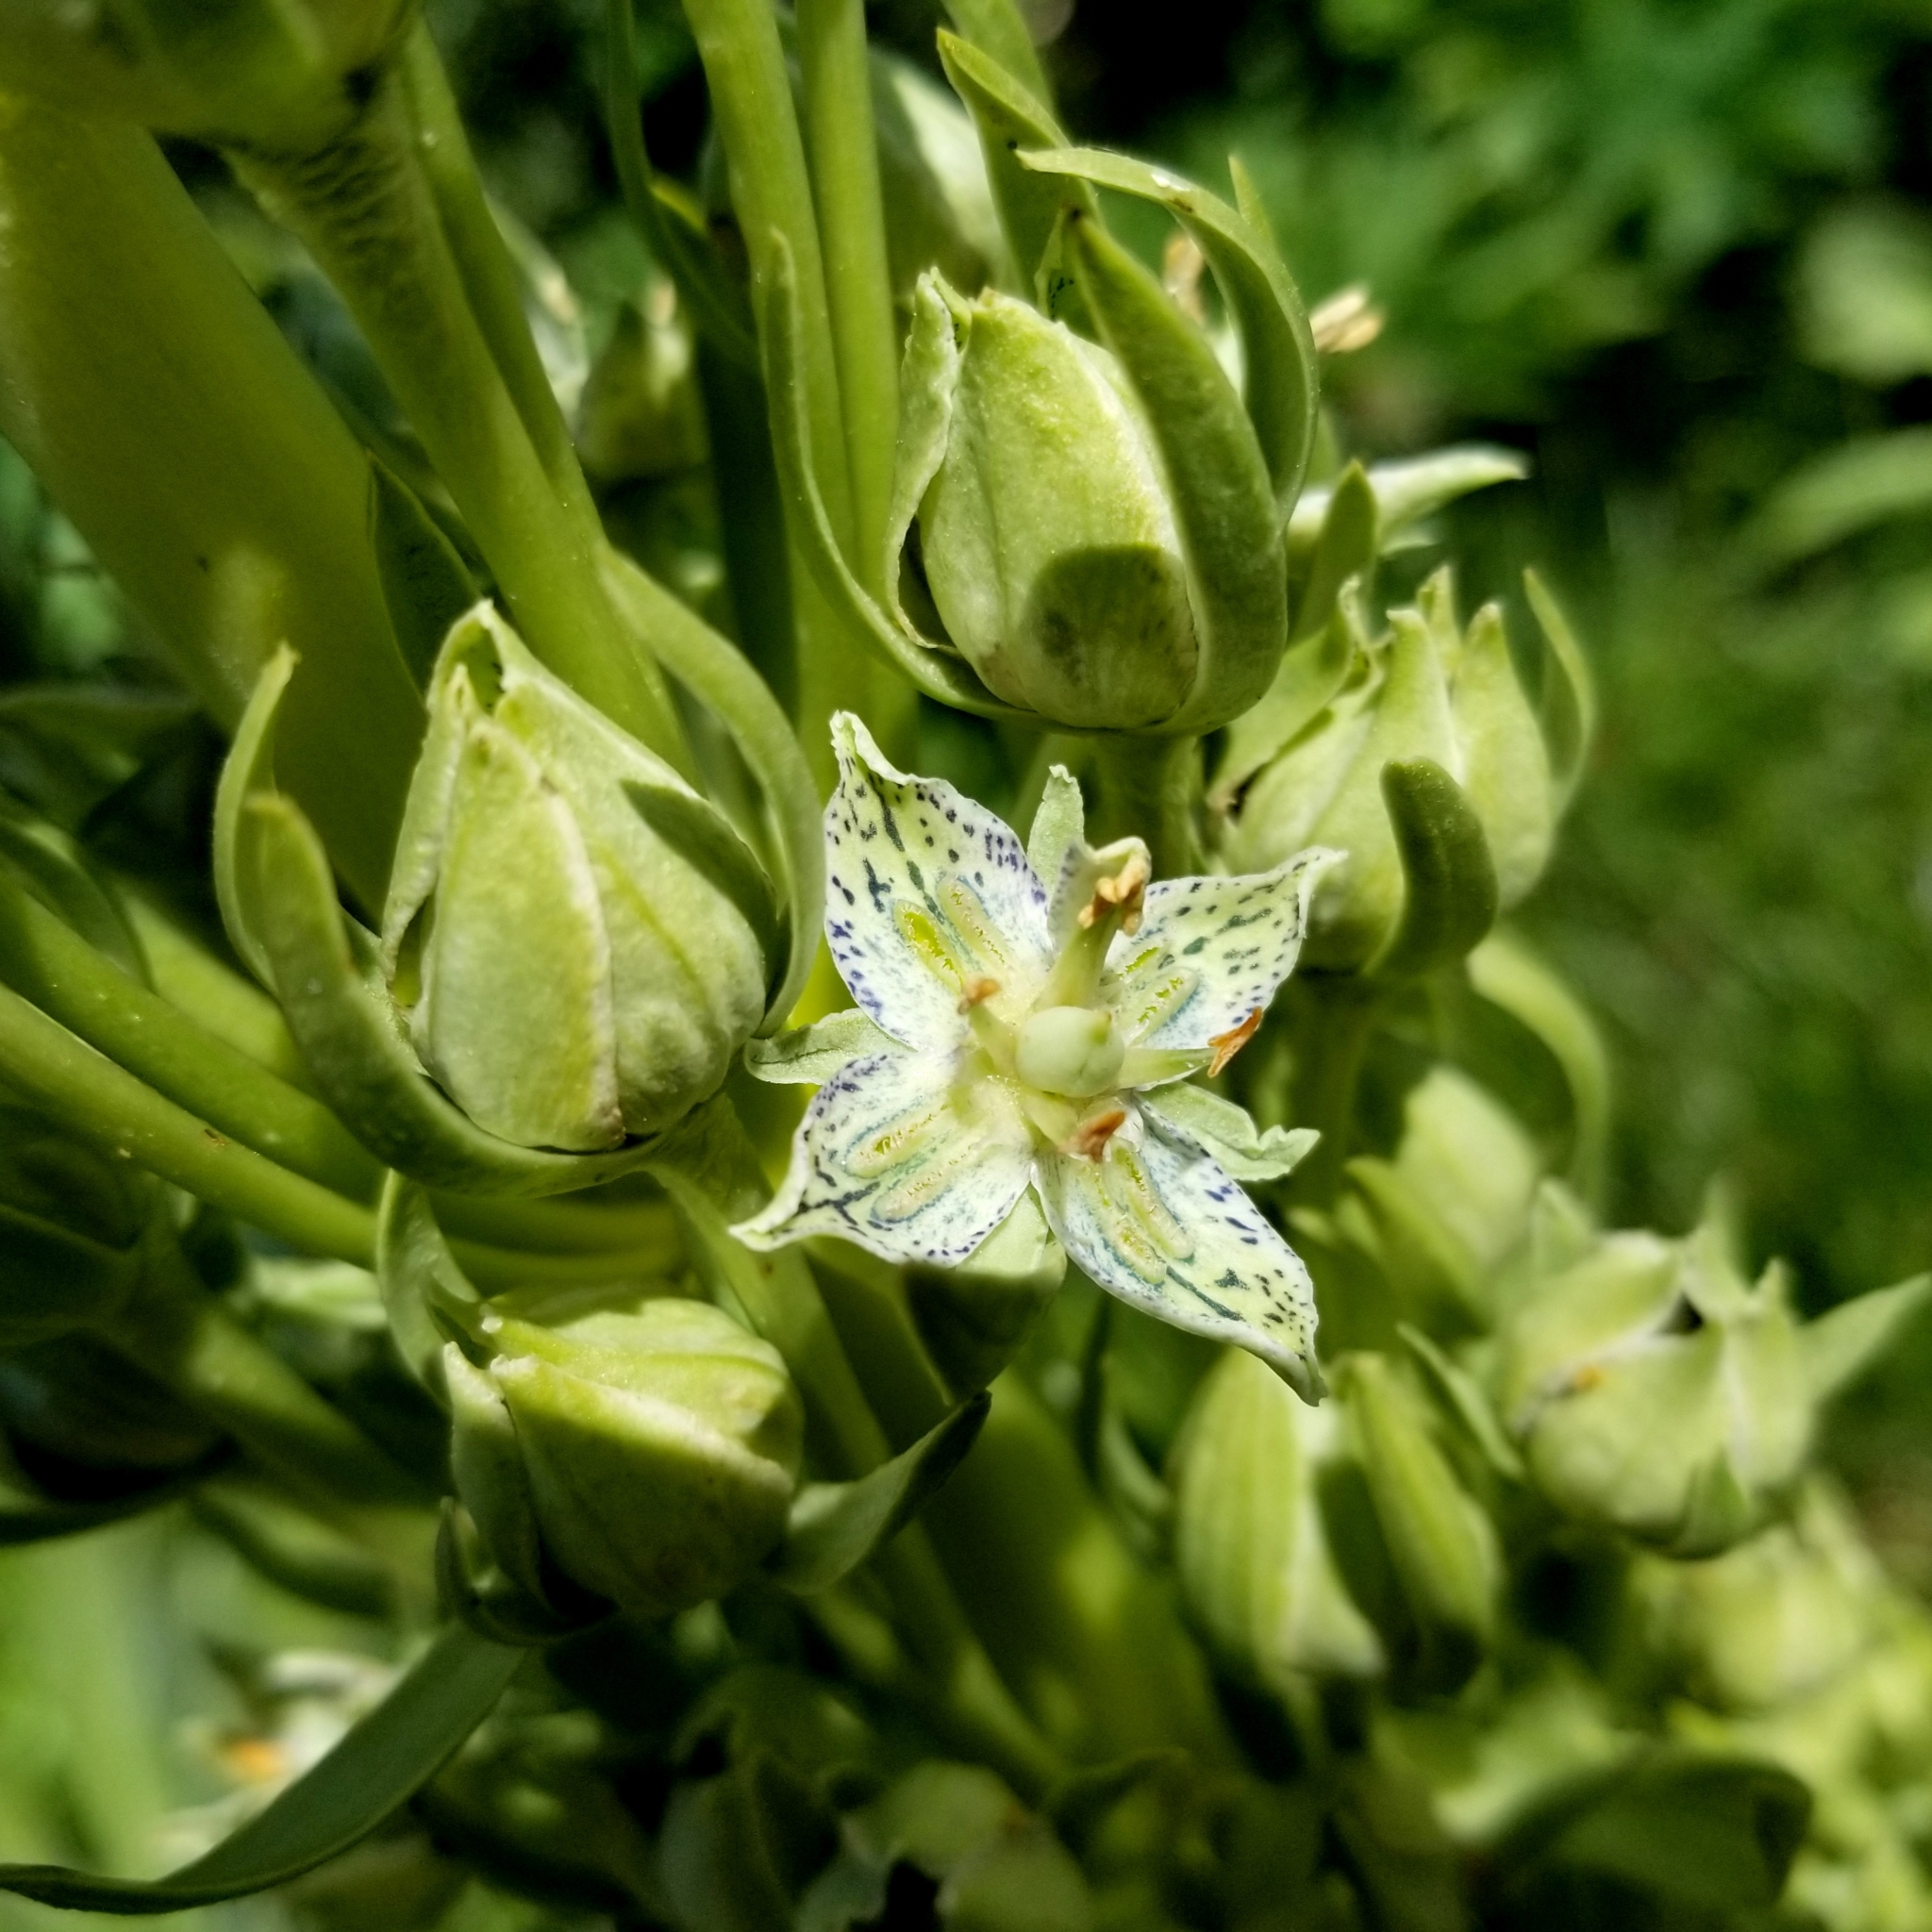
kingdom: Plantae
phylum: Tracheophyta
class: Magnoliopsida
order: Gentianales
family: Gentianaceae
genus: Frasera
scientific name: Frasera speciosa
